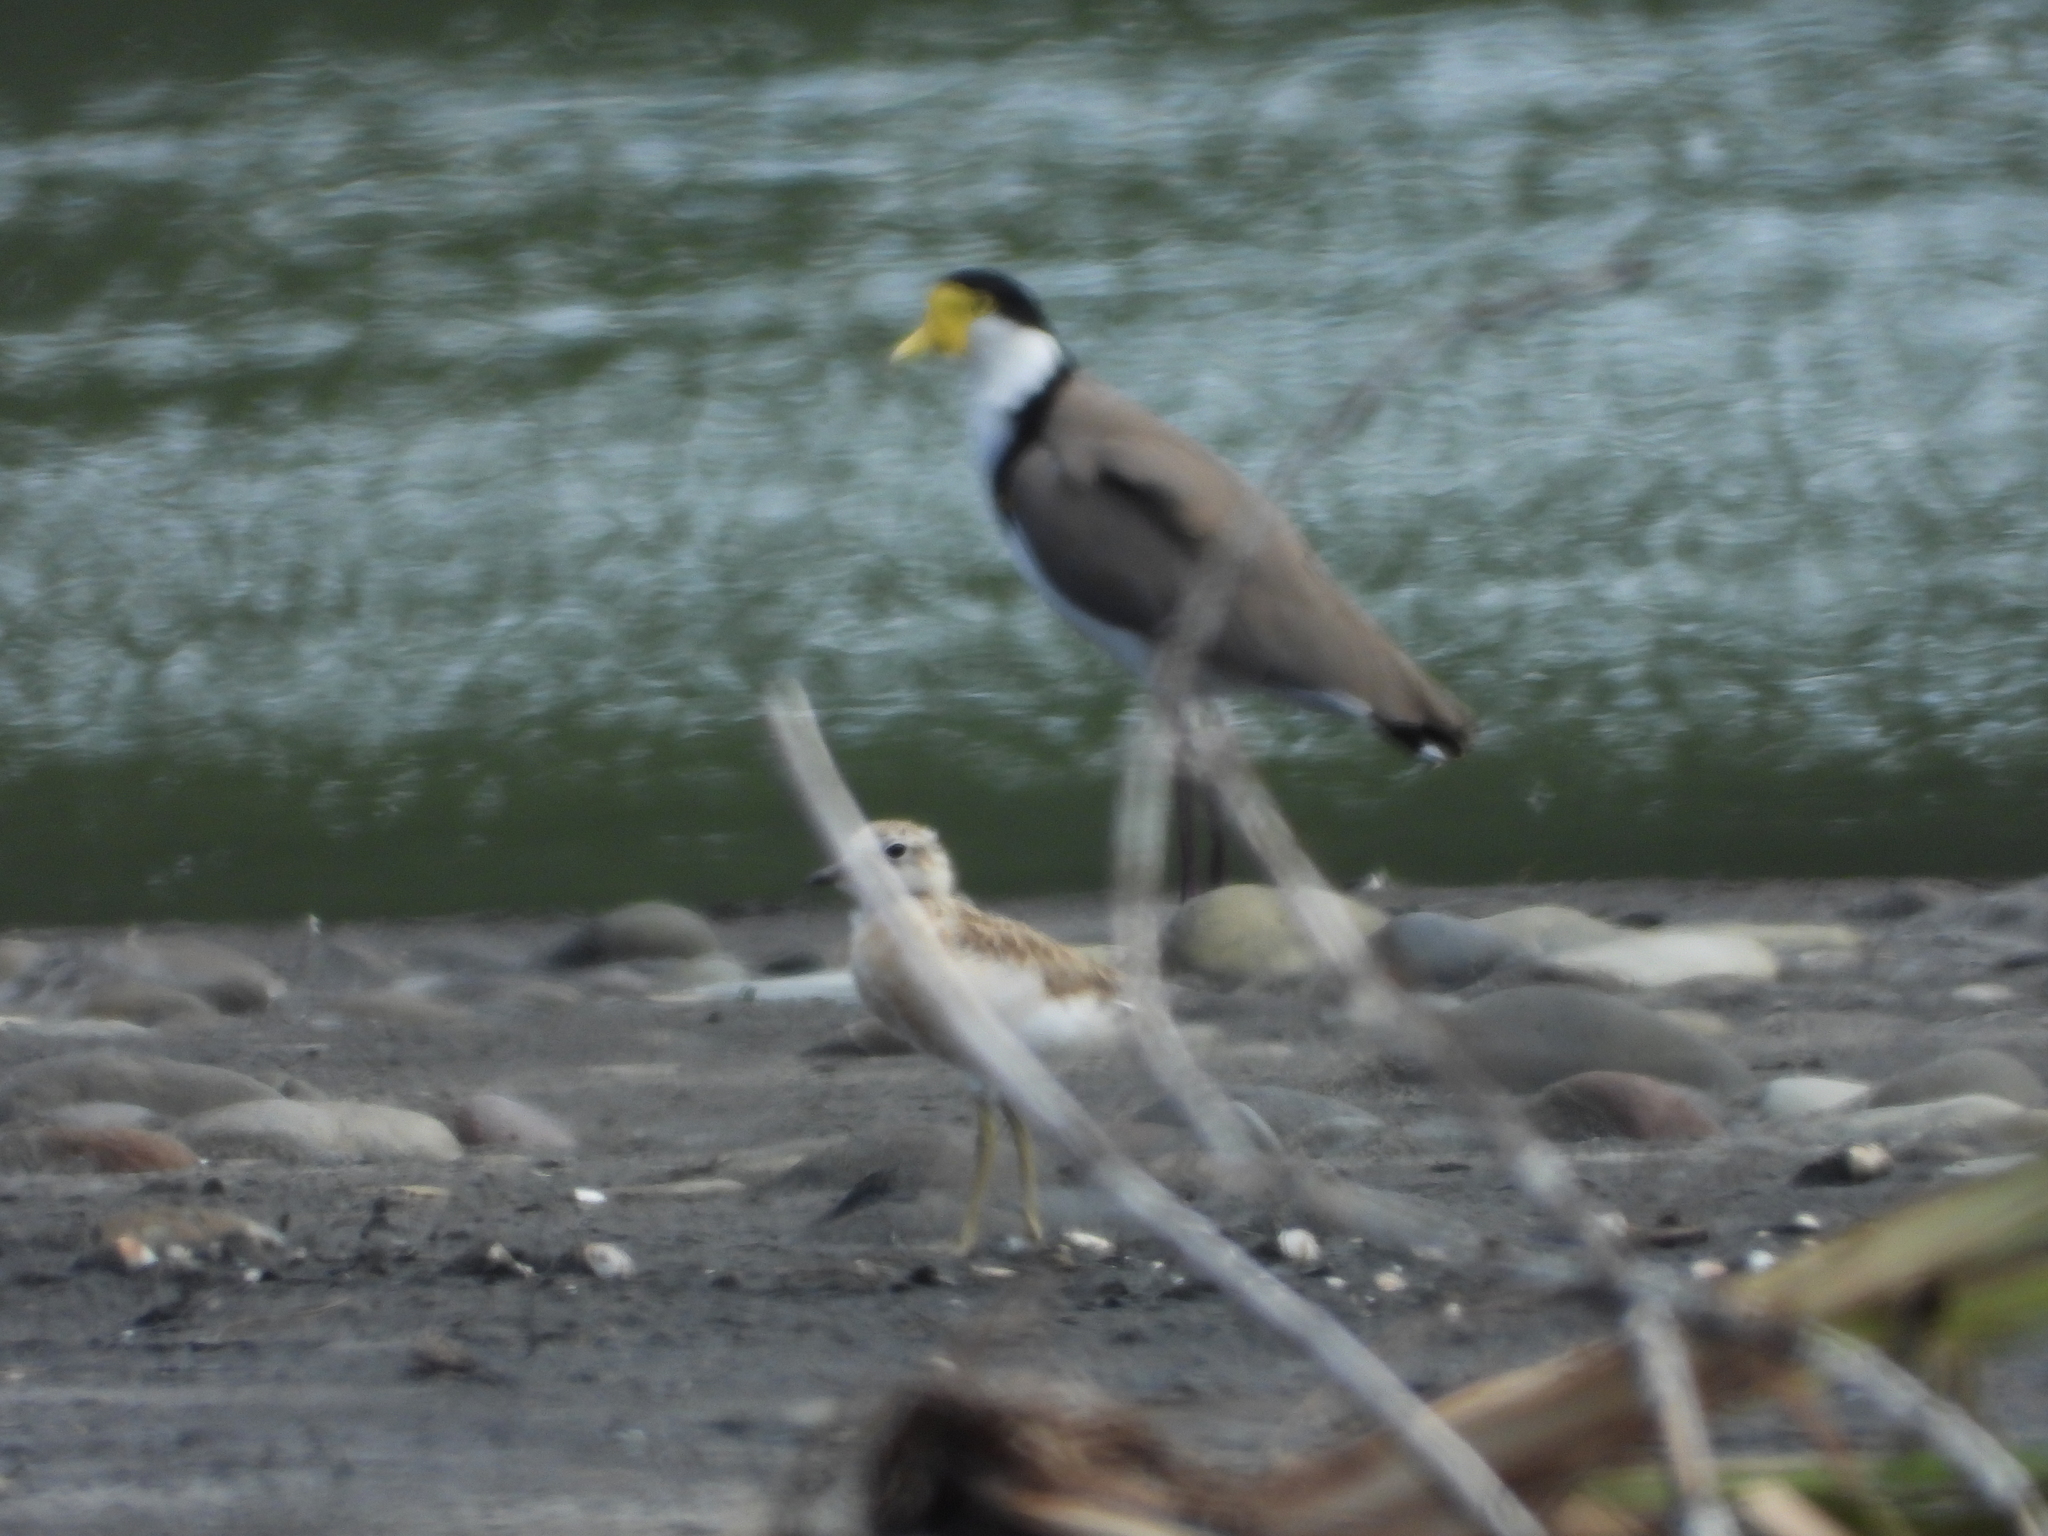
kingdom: Animalia
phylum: Chordata
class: Aves
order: Charadriiformes
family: Charadriidae
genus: Vanellus
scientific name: Vanellus miles
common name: Masked lapwing
